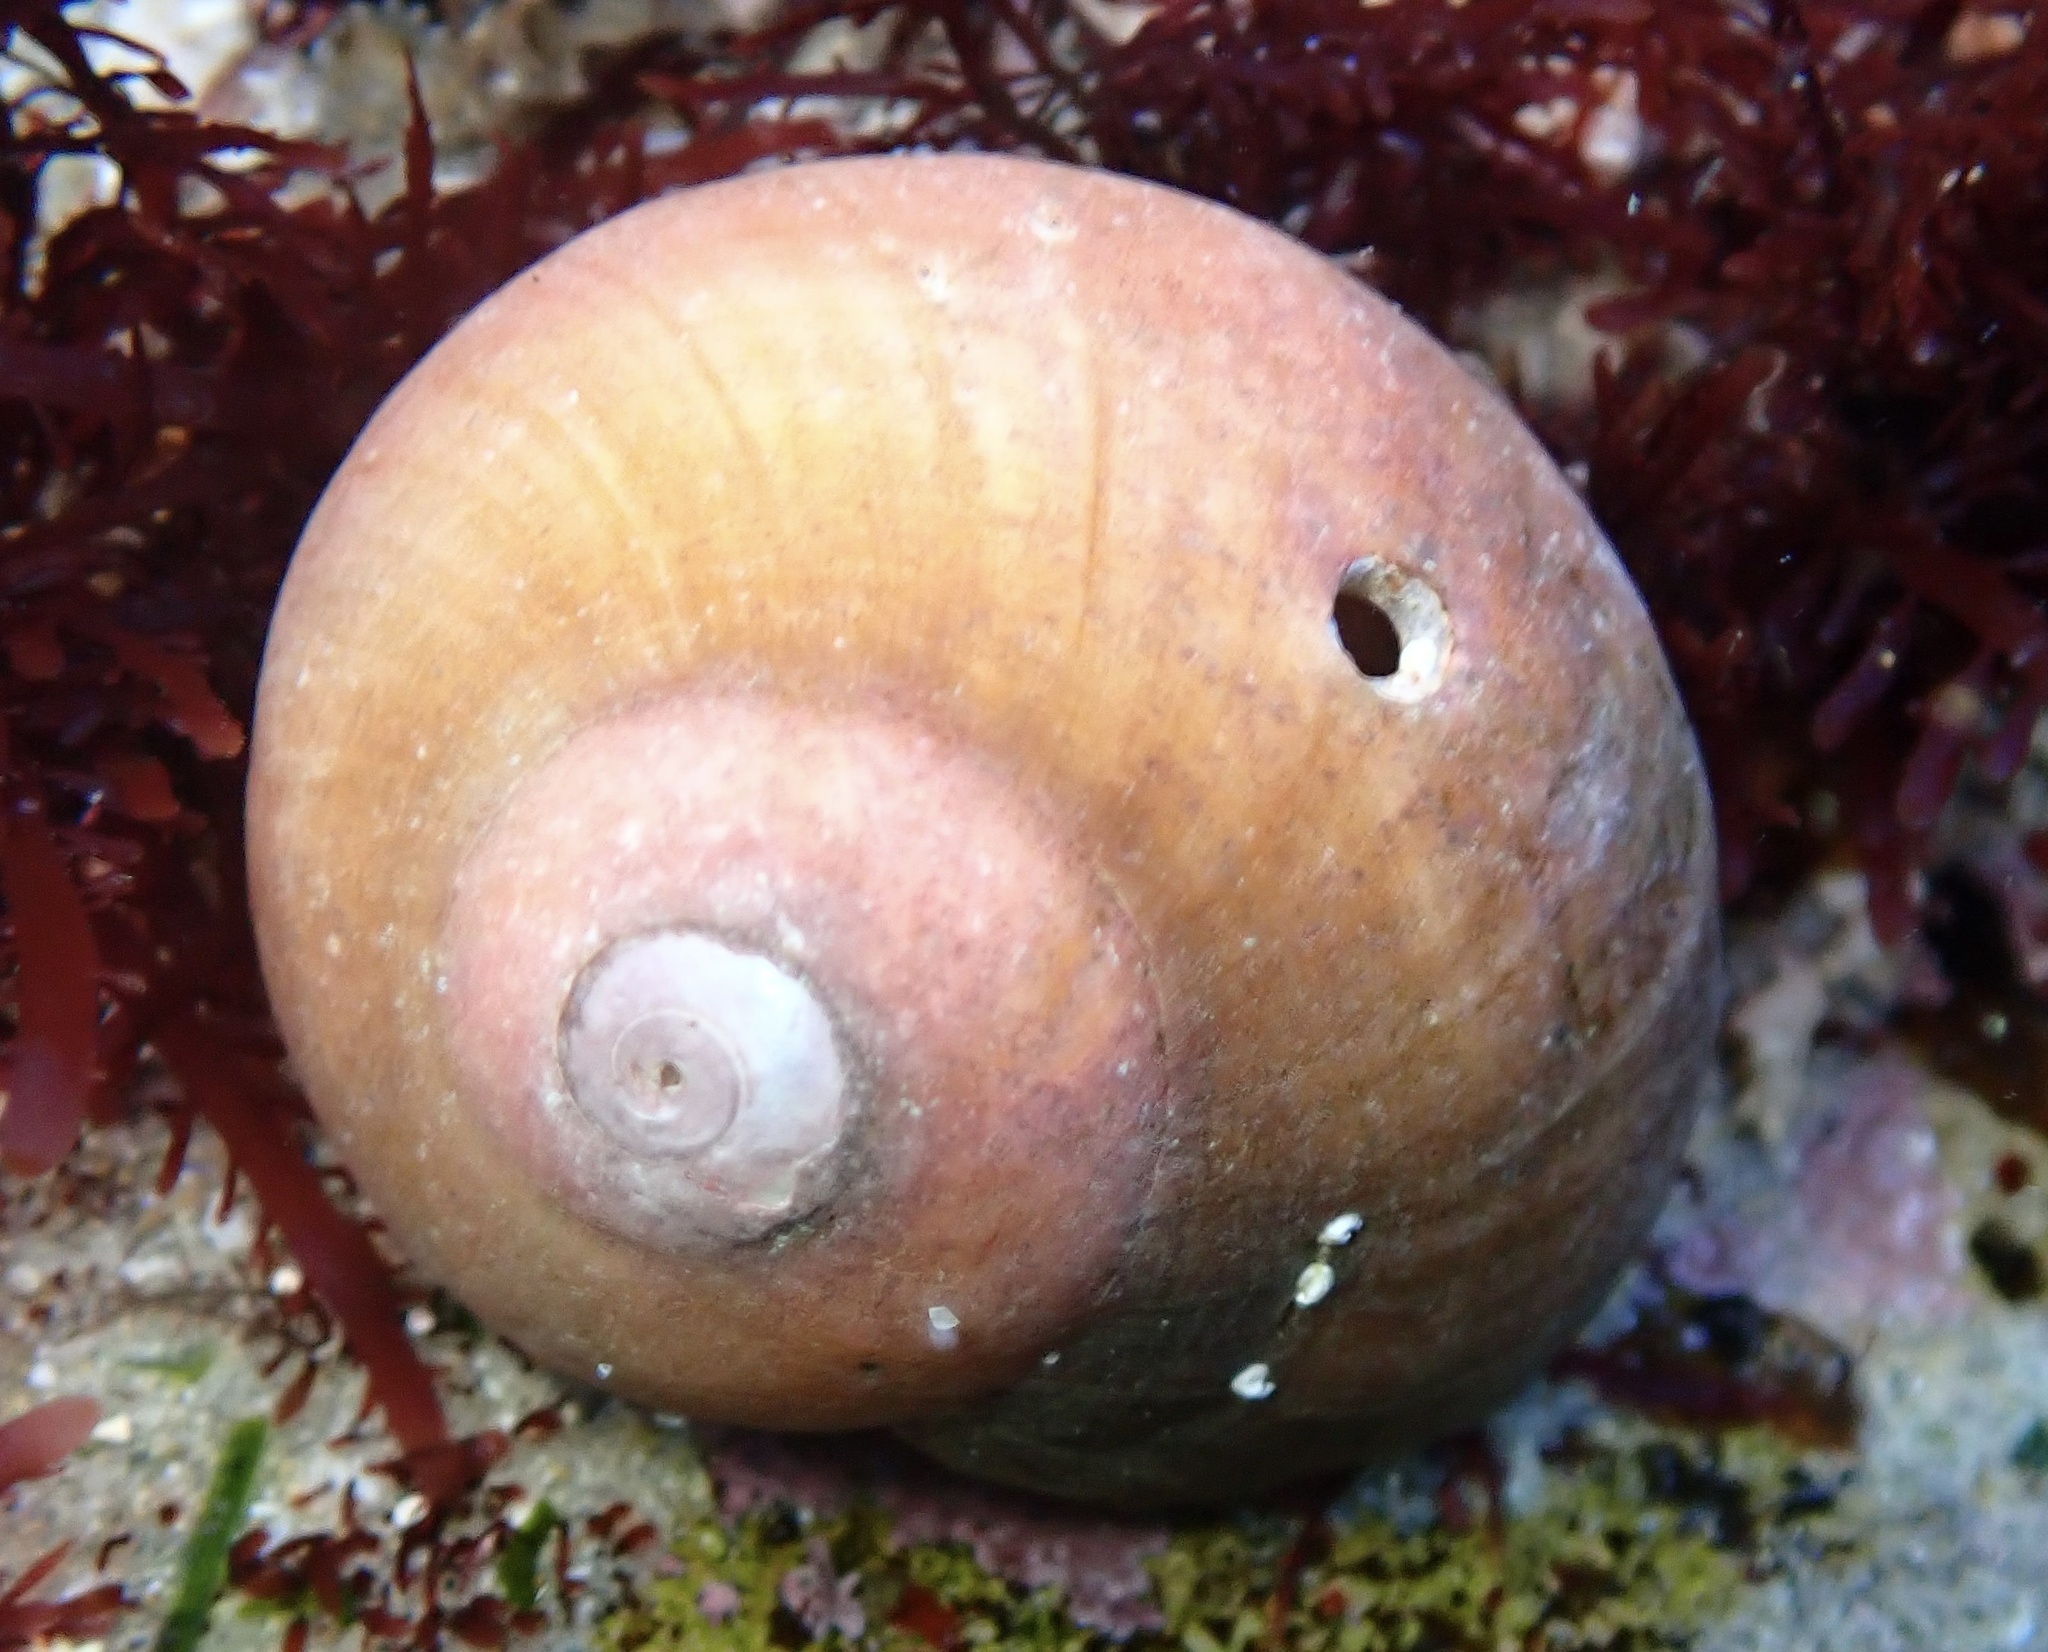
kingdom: Animalia
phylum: Mollusca
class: Gastropoda
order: Trochida
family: Tegulidae
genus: Norrisia
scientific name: Norrisia norrisii
